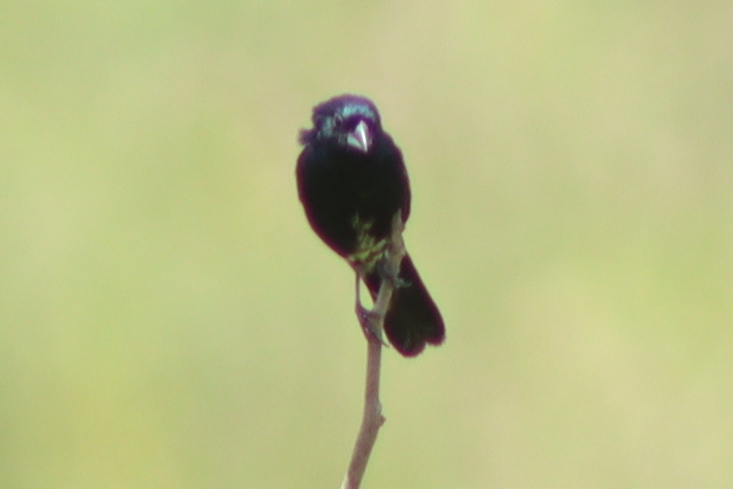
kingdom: Animalia
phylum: Chordata
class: Aves
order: Passeriformes
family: Thraupidae
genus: Volatinia
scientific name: Volatinia jacarina
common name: Blue-black grassquit
